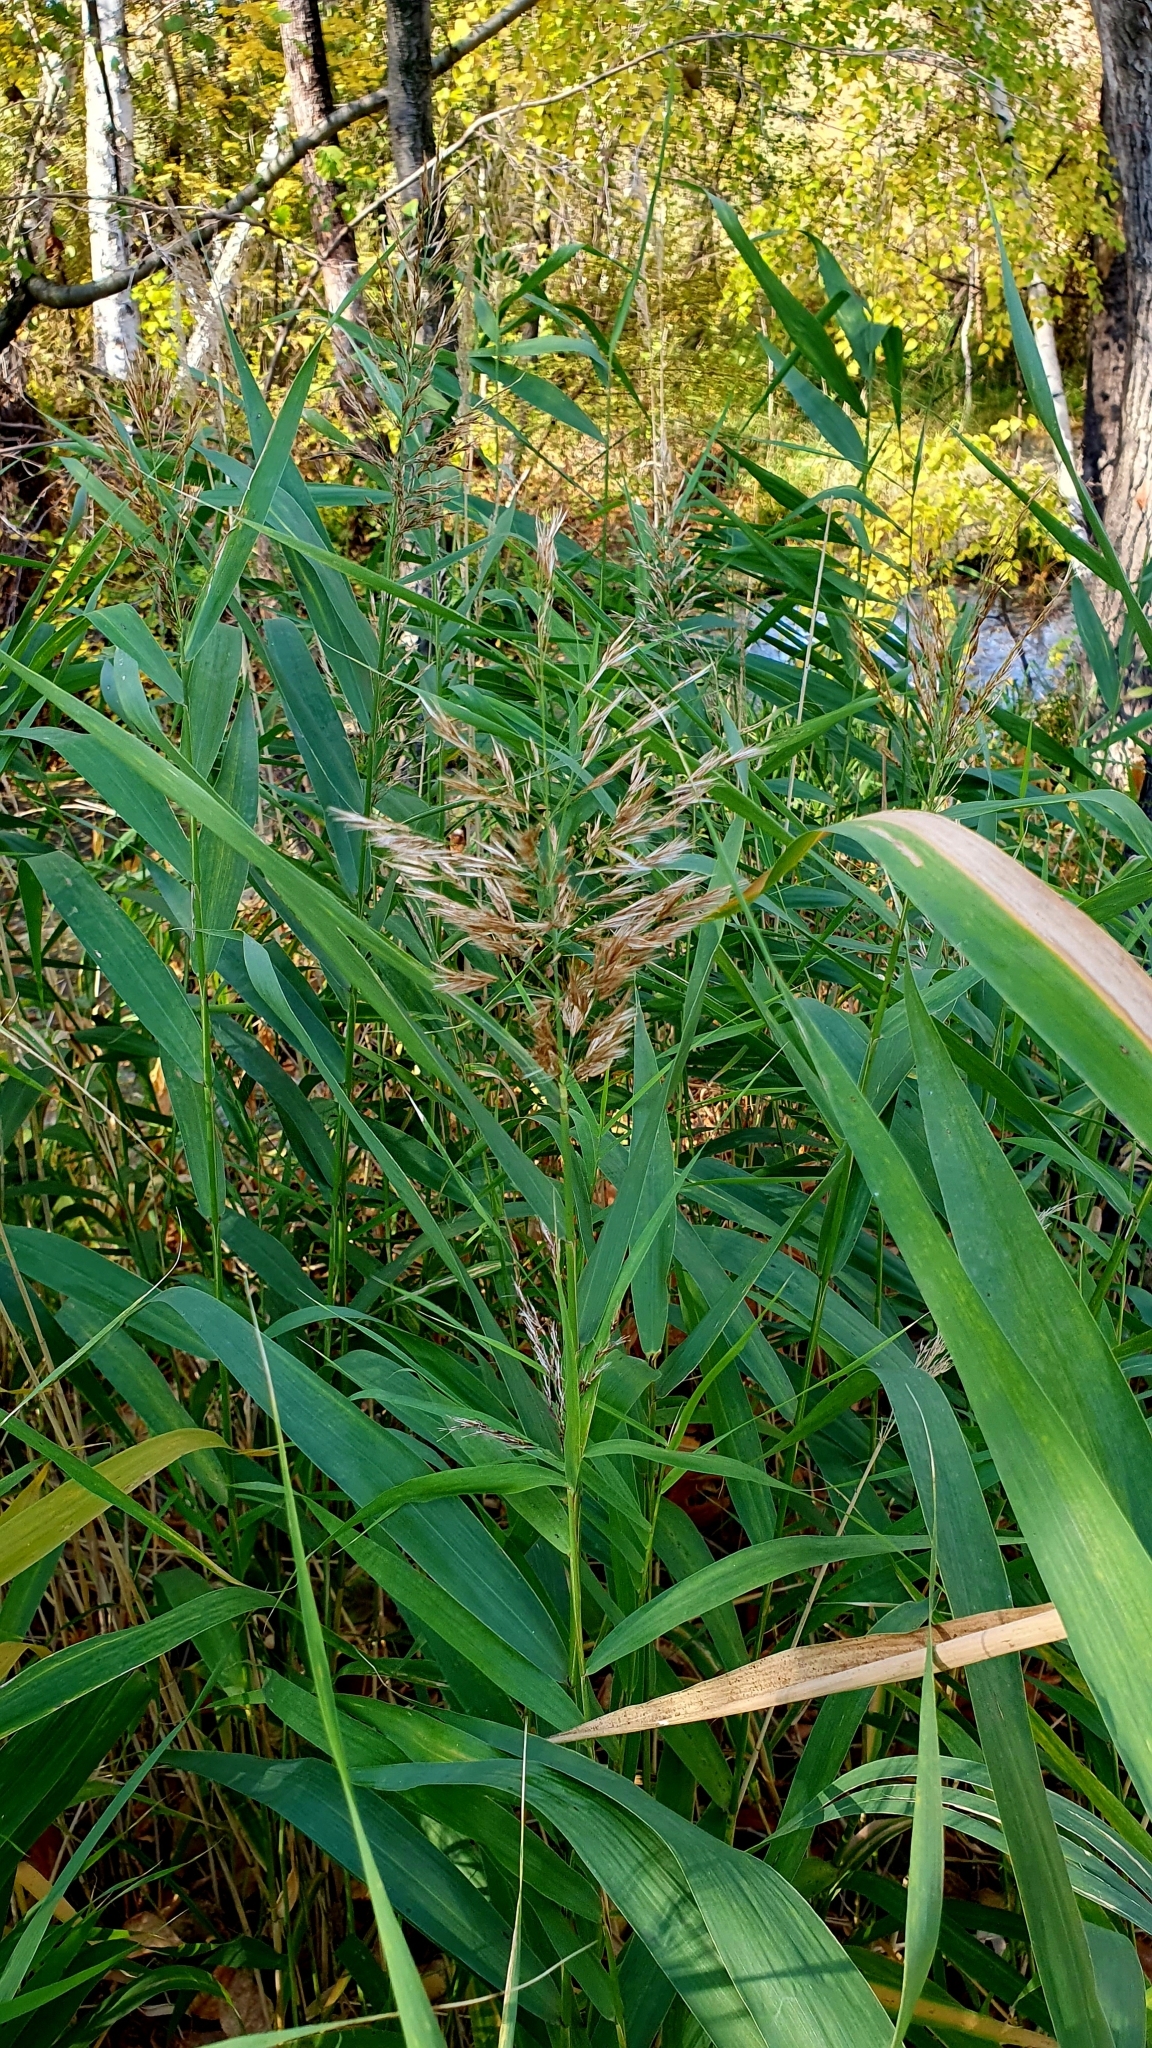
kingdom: Plantae
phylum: Tracheophyta
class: Liliopsida
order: Poales
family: Poaceae
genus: Phragmites
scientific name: Phragmites australis
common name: Common reed
